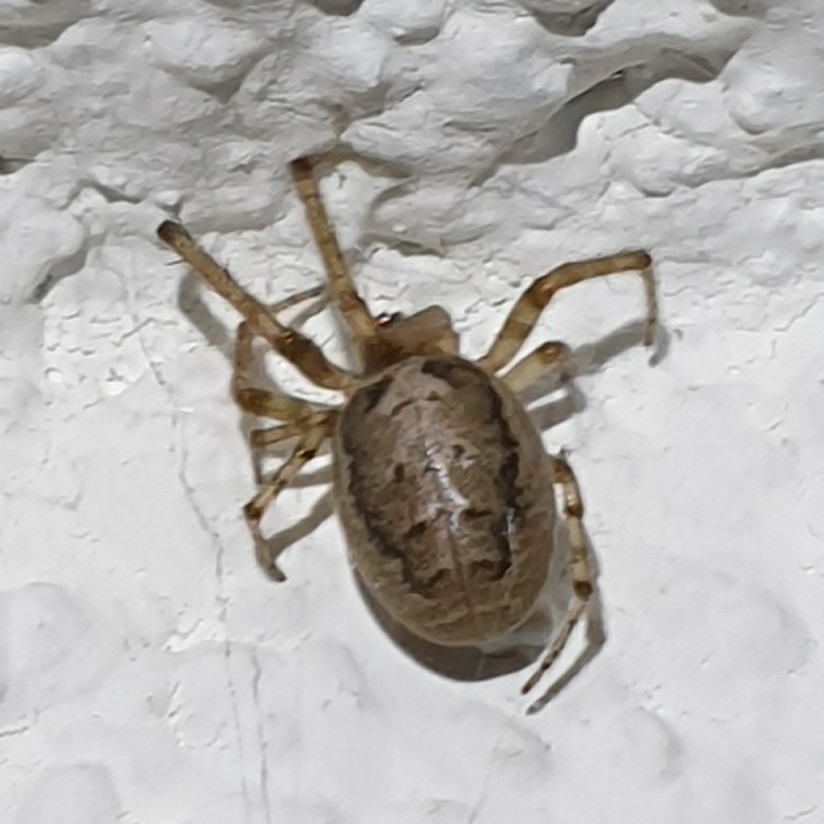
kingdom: Animalia
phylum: Arthropoda
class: Arachnida
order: Araneae
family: Araneidae
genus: Zygiella
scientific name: Zygiella x-notata
